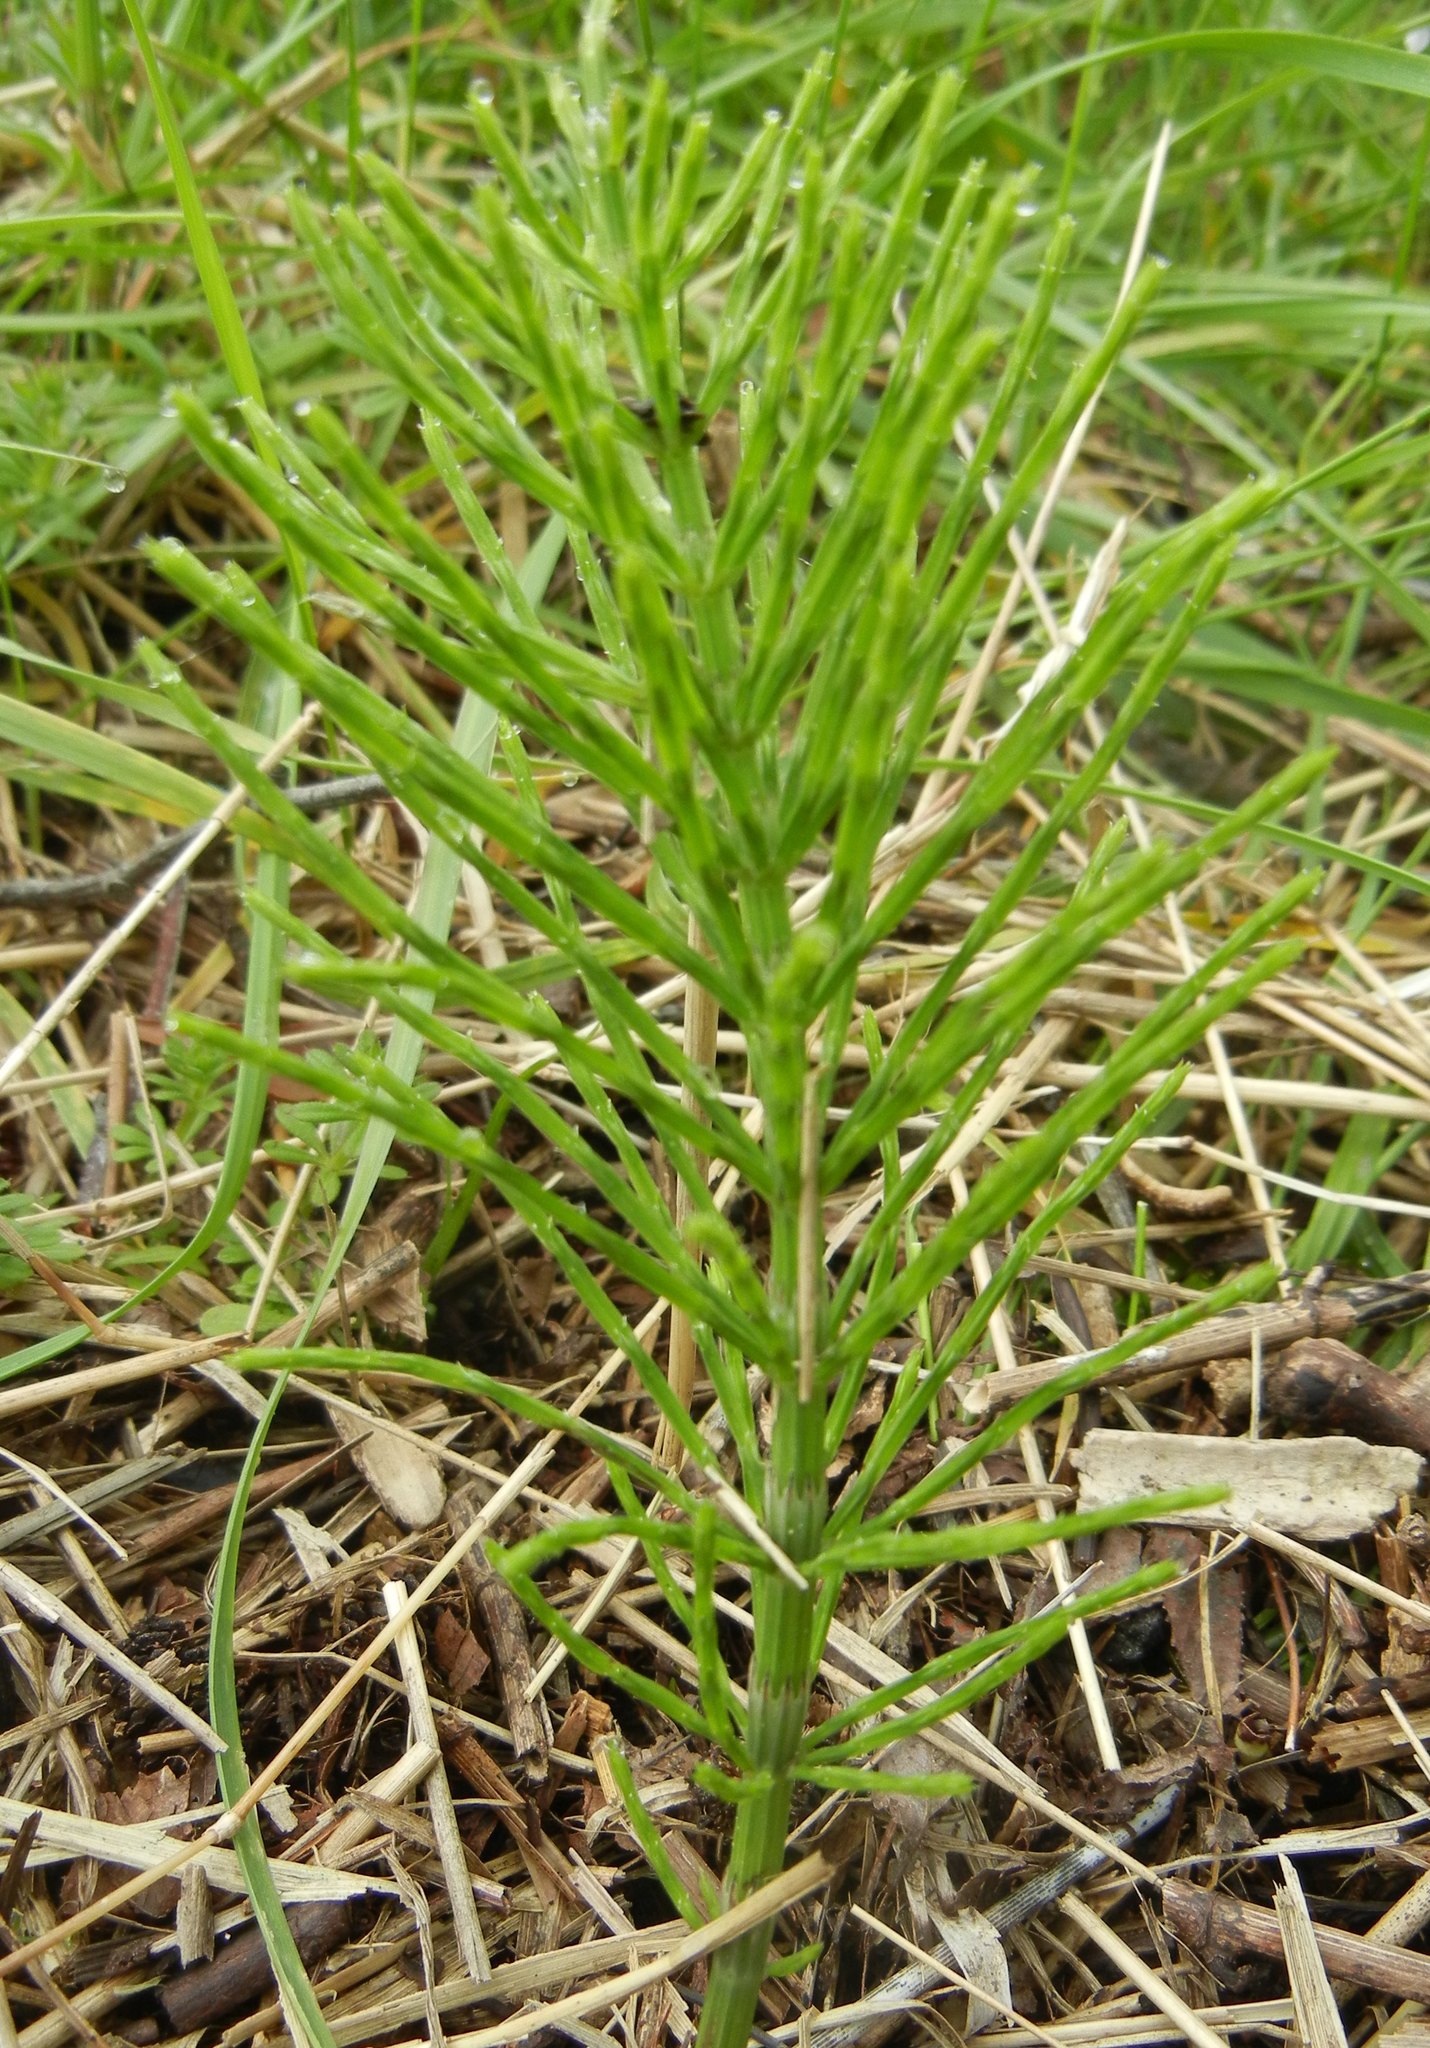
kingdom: Plantae
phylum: Tracheophyta
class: Polypodiopsida
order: Equisetales
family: Equisetaceae
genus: Equisetum
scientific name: Equisetum arvense
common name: Field horsetail
